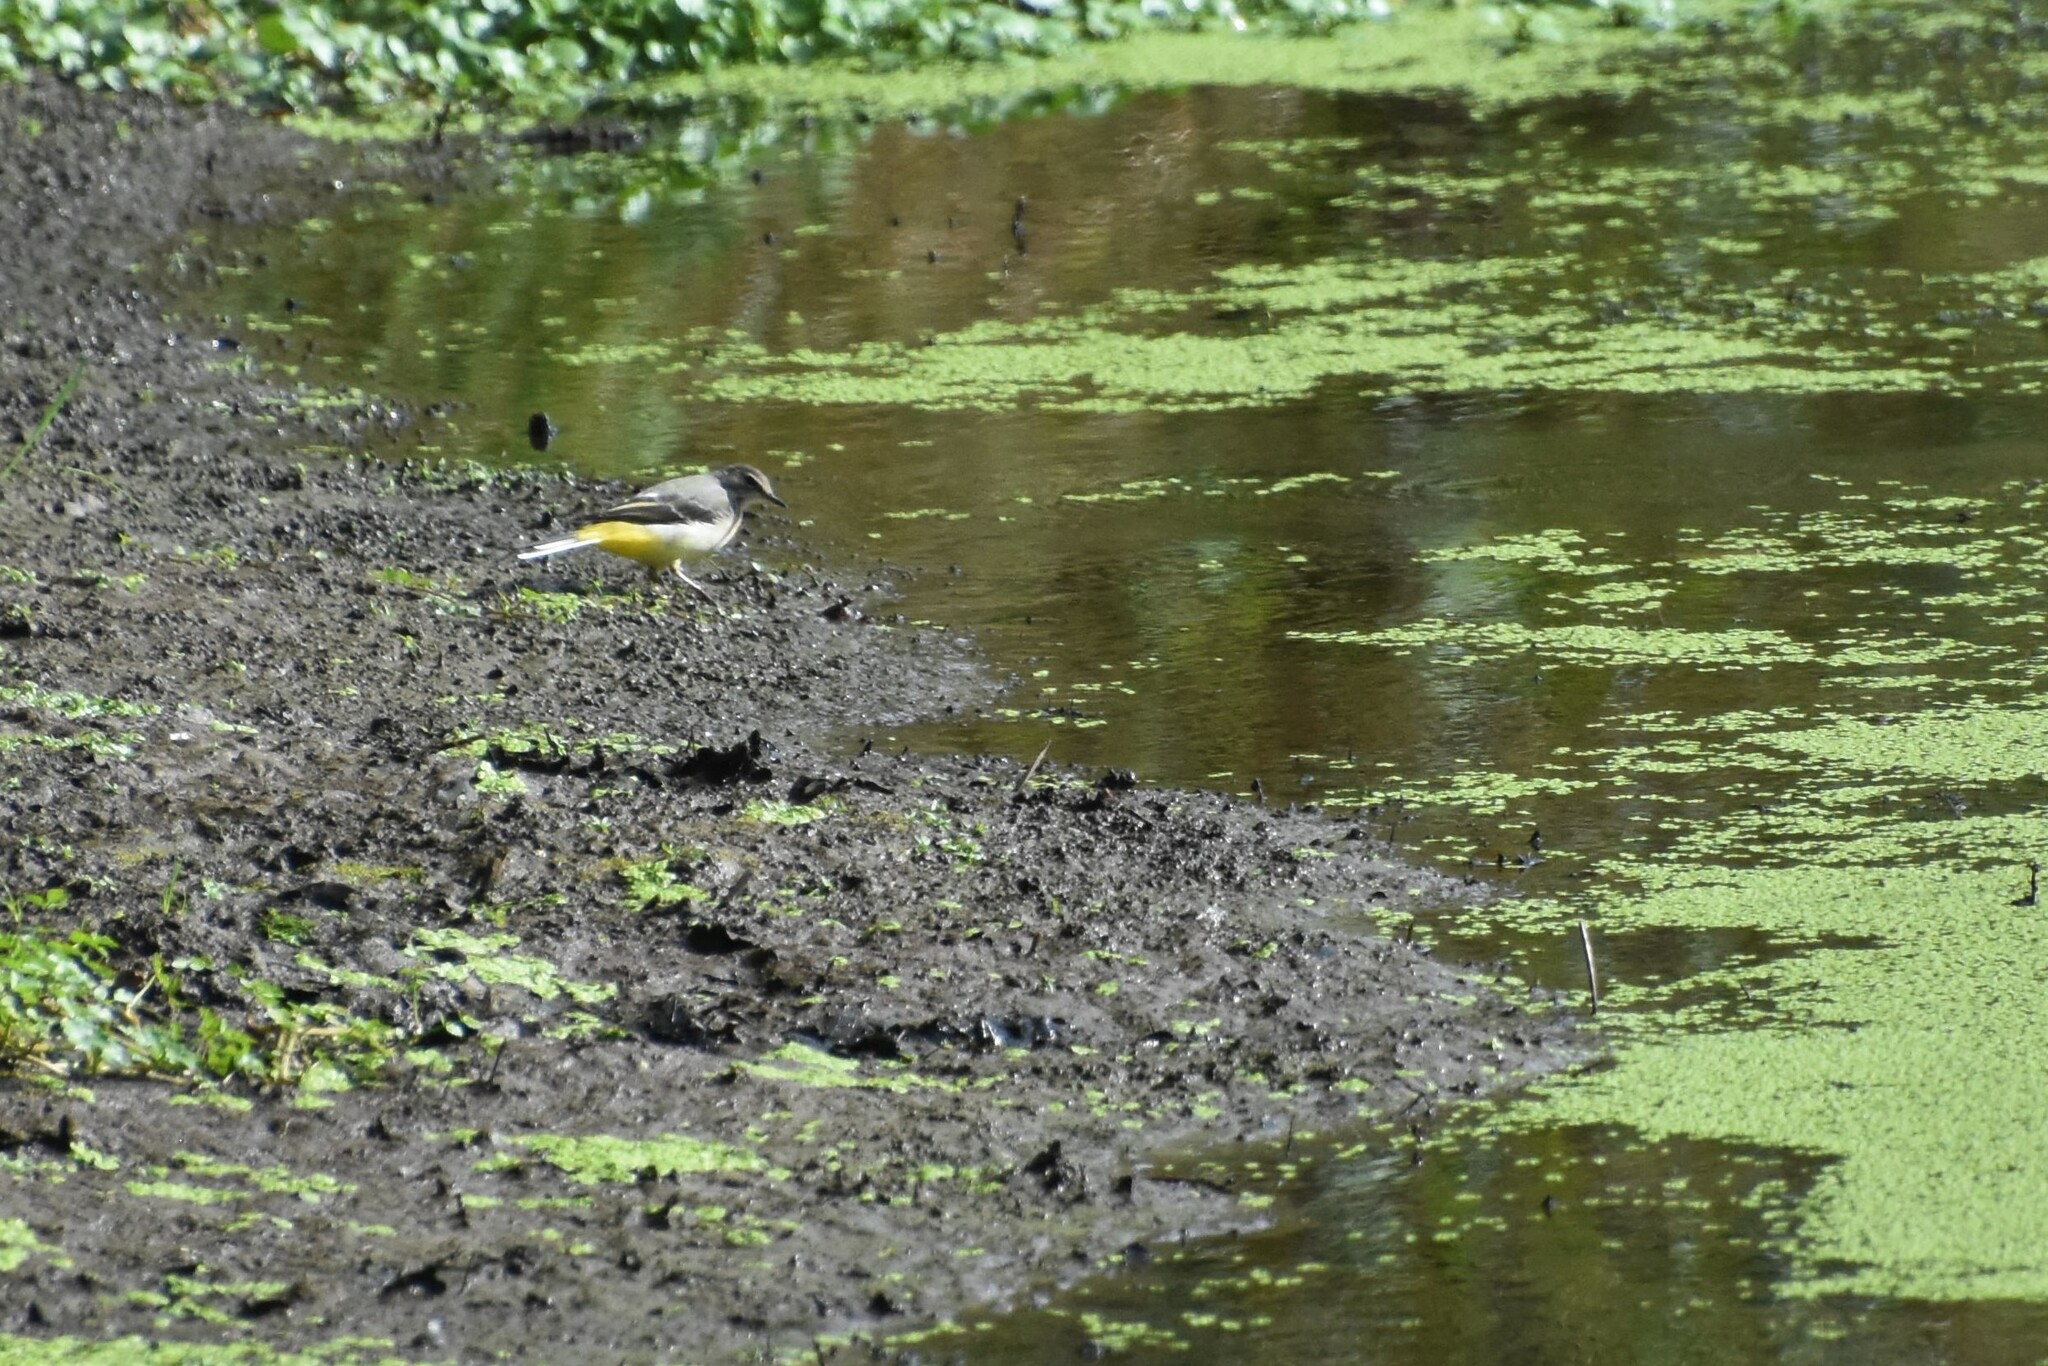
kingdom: Animalia
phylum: Chordata
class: Aves
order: Passeriformes
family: Motacillidae
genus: Motacilla
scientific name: Motacilla cinerea
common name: Grey wagtail
